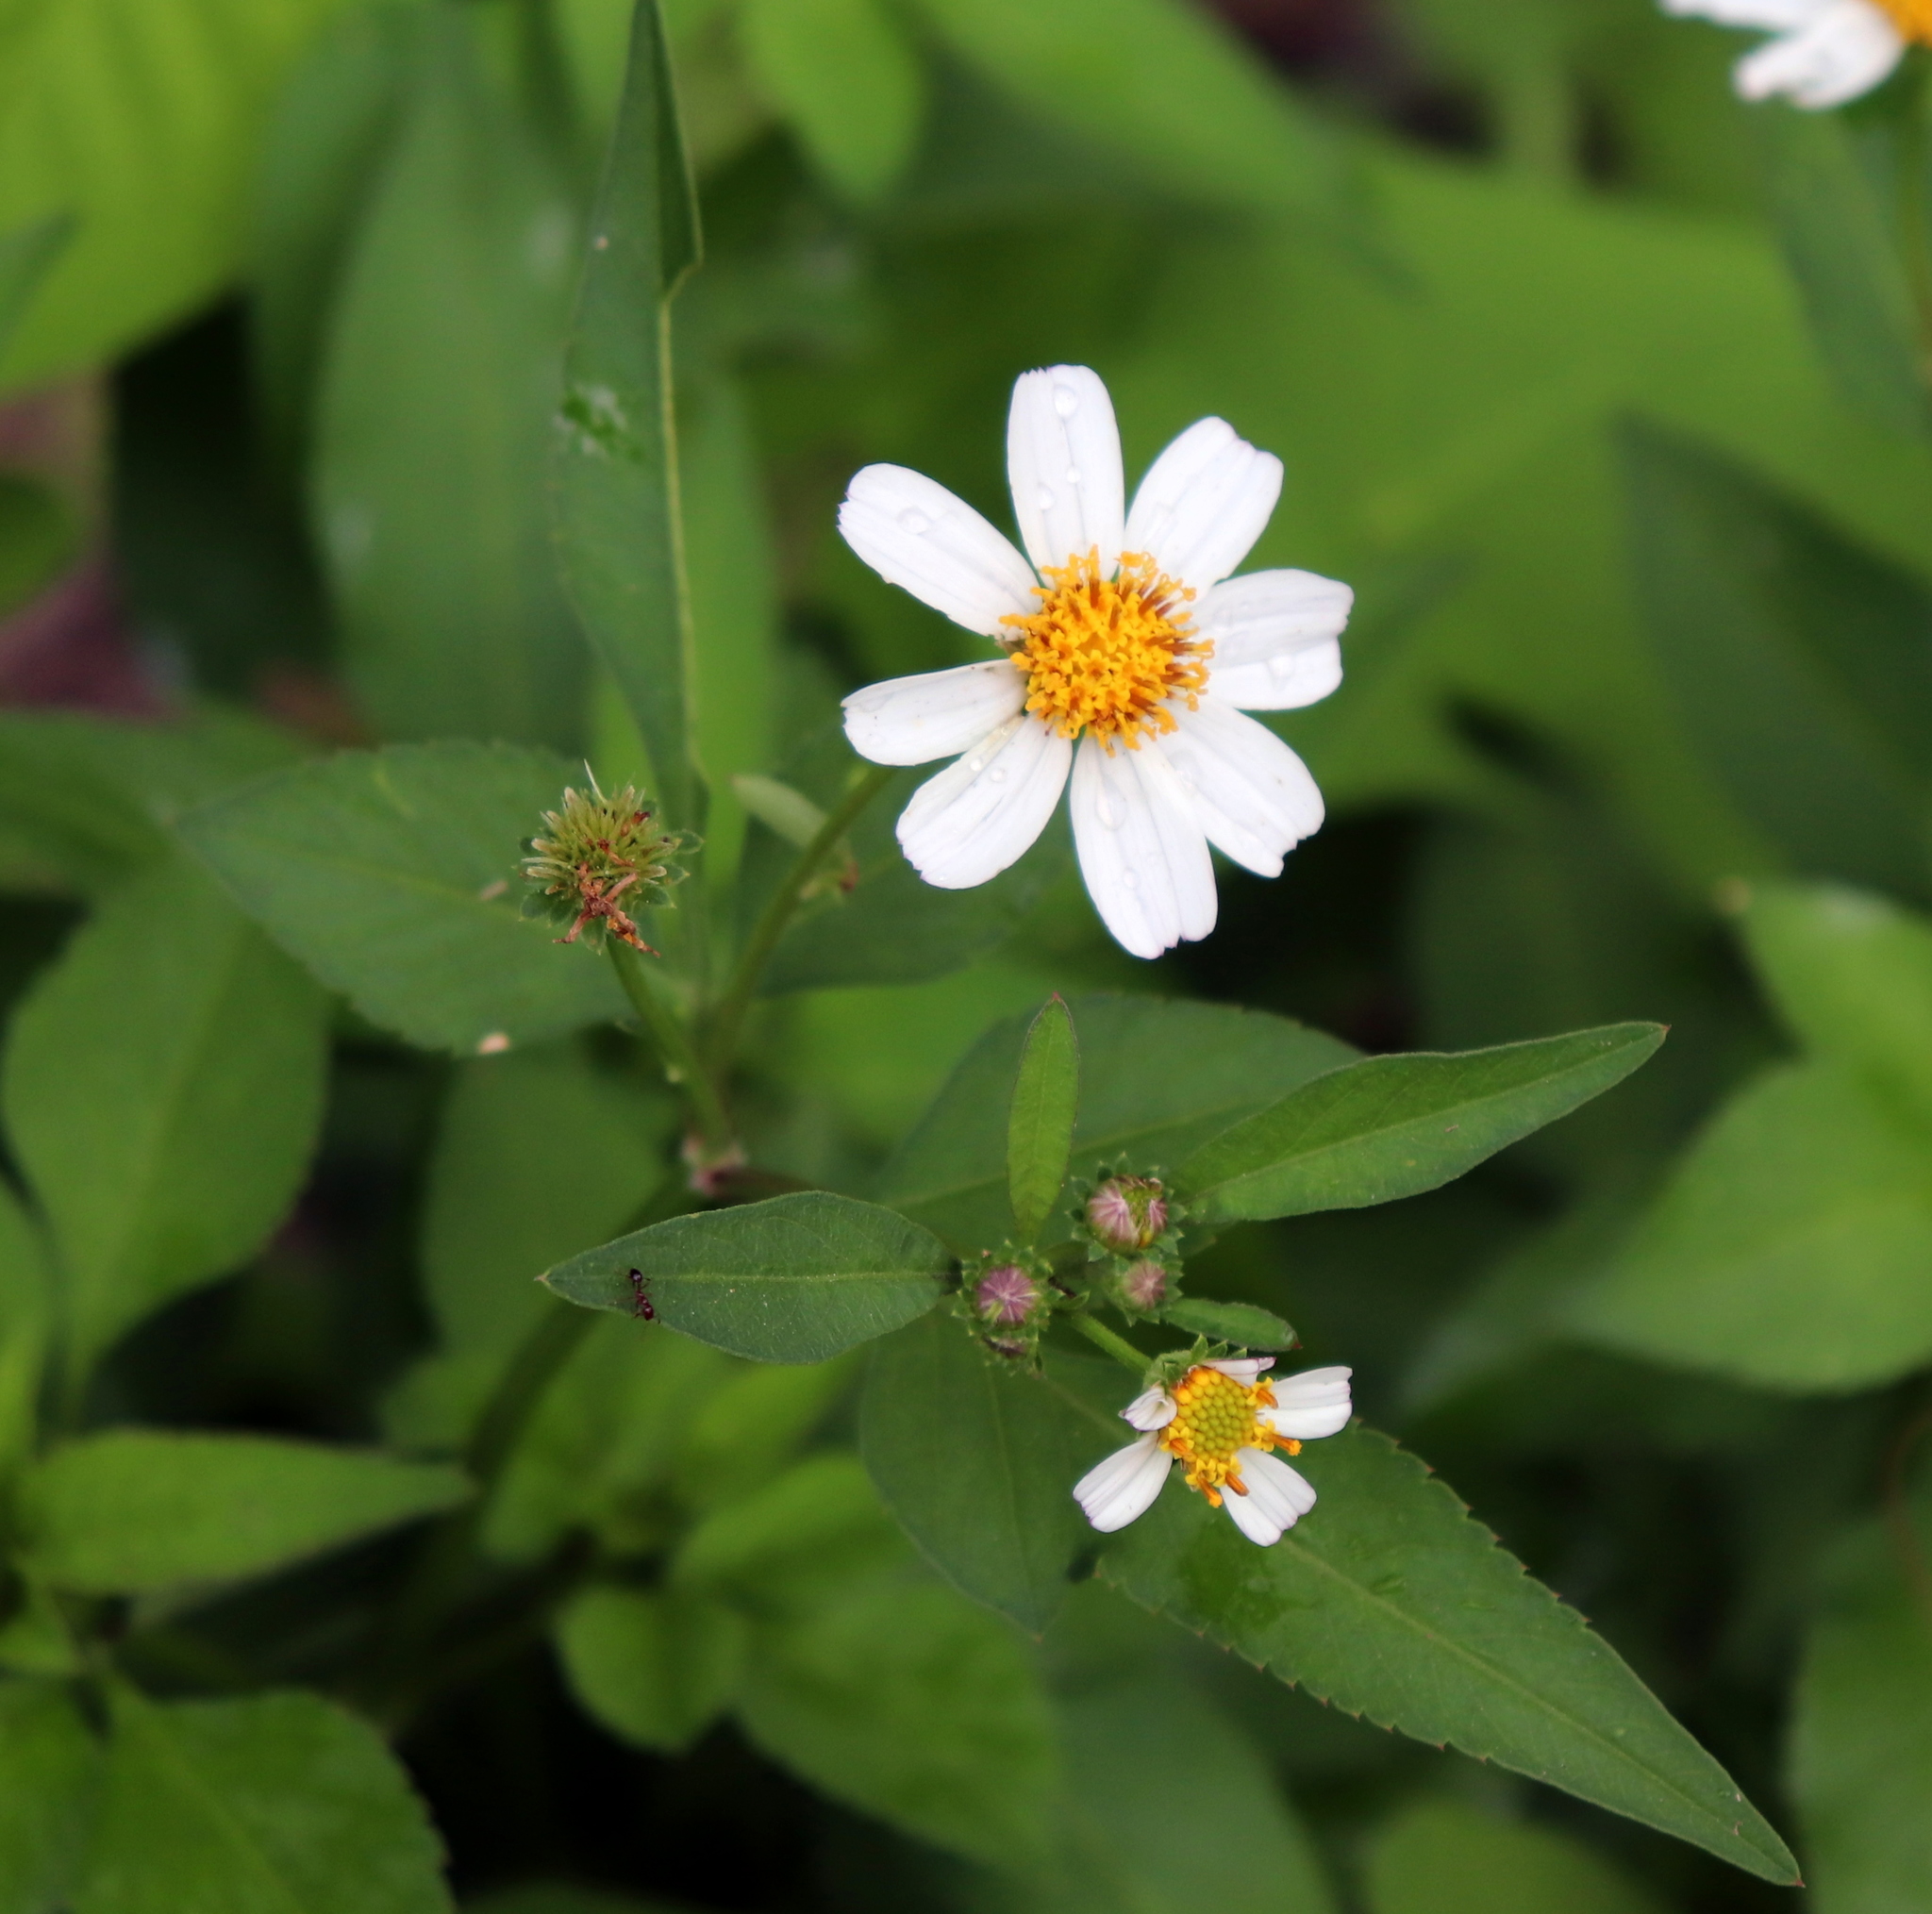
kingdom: Plantae
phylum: Tracheophyta
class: Magnoliopsida
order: Asterales
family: Asteraceae
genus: Bidens
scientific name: Bidens alba
